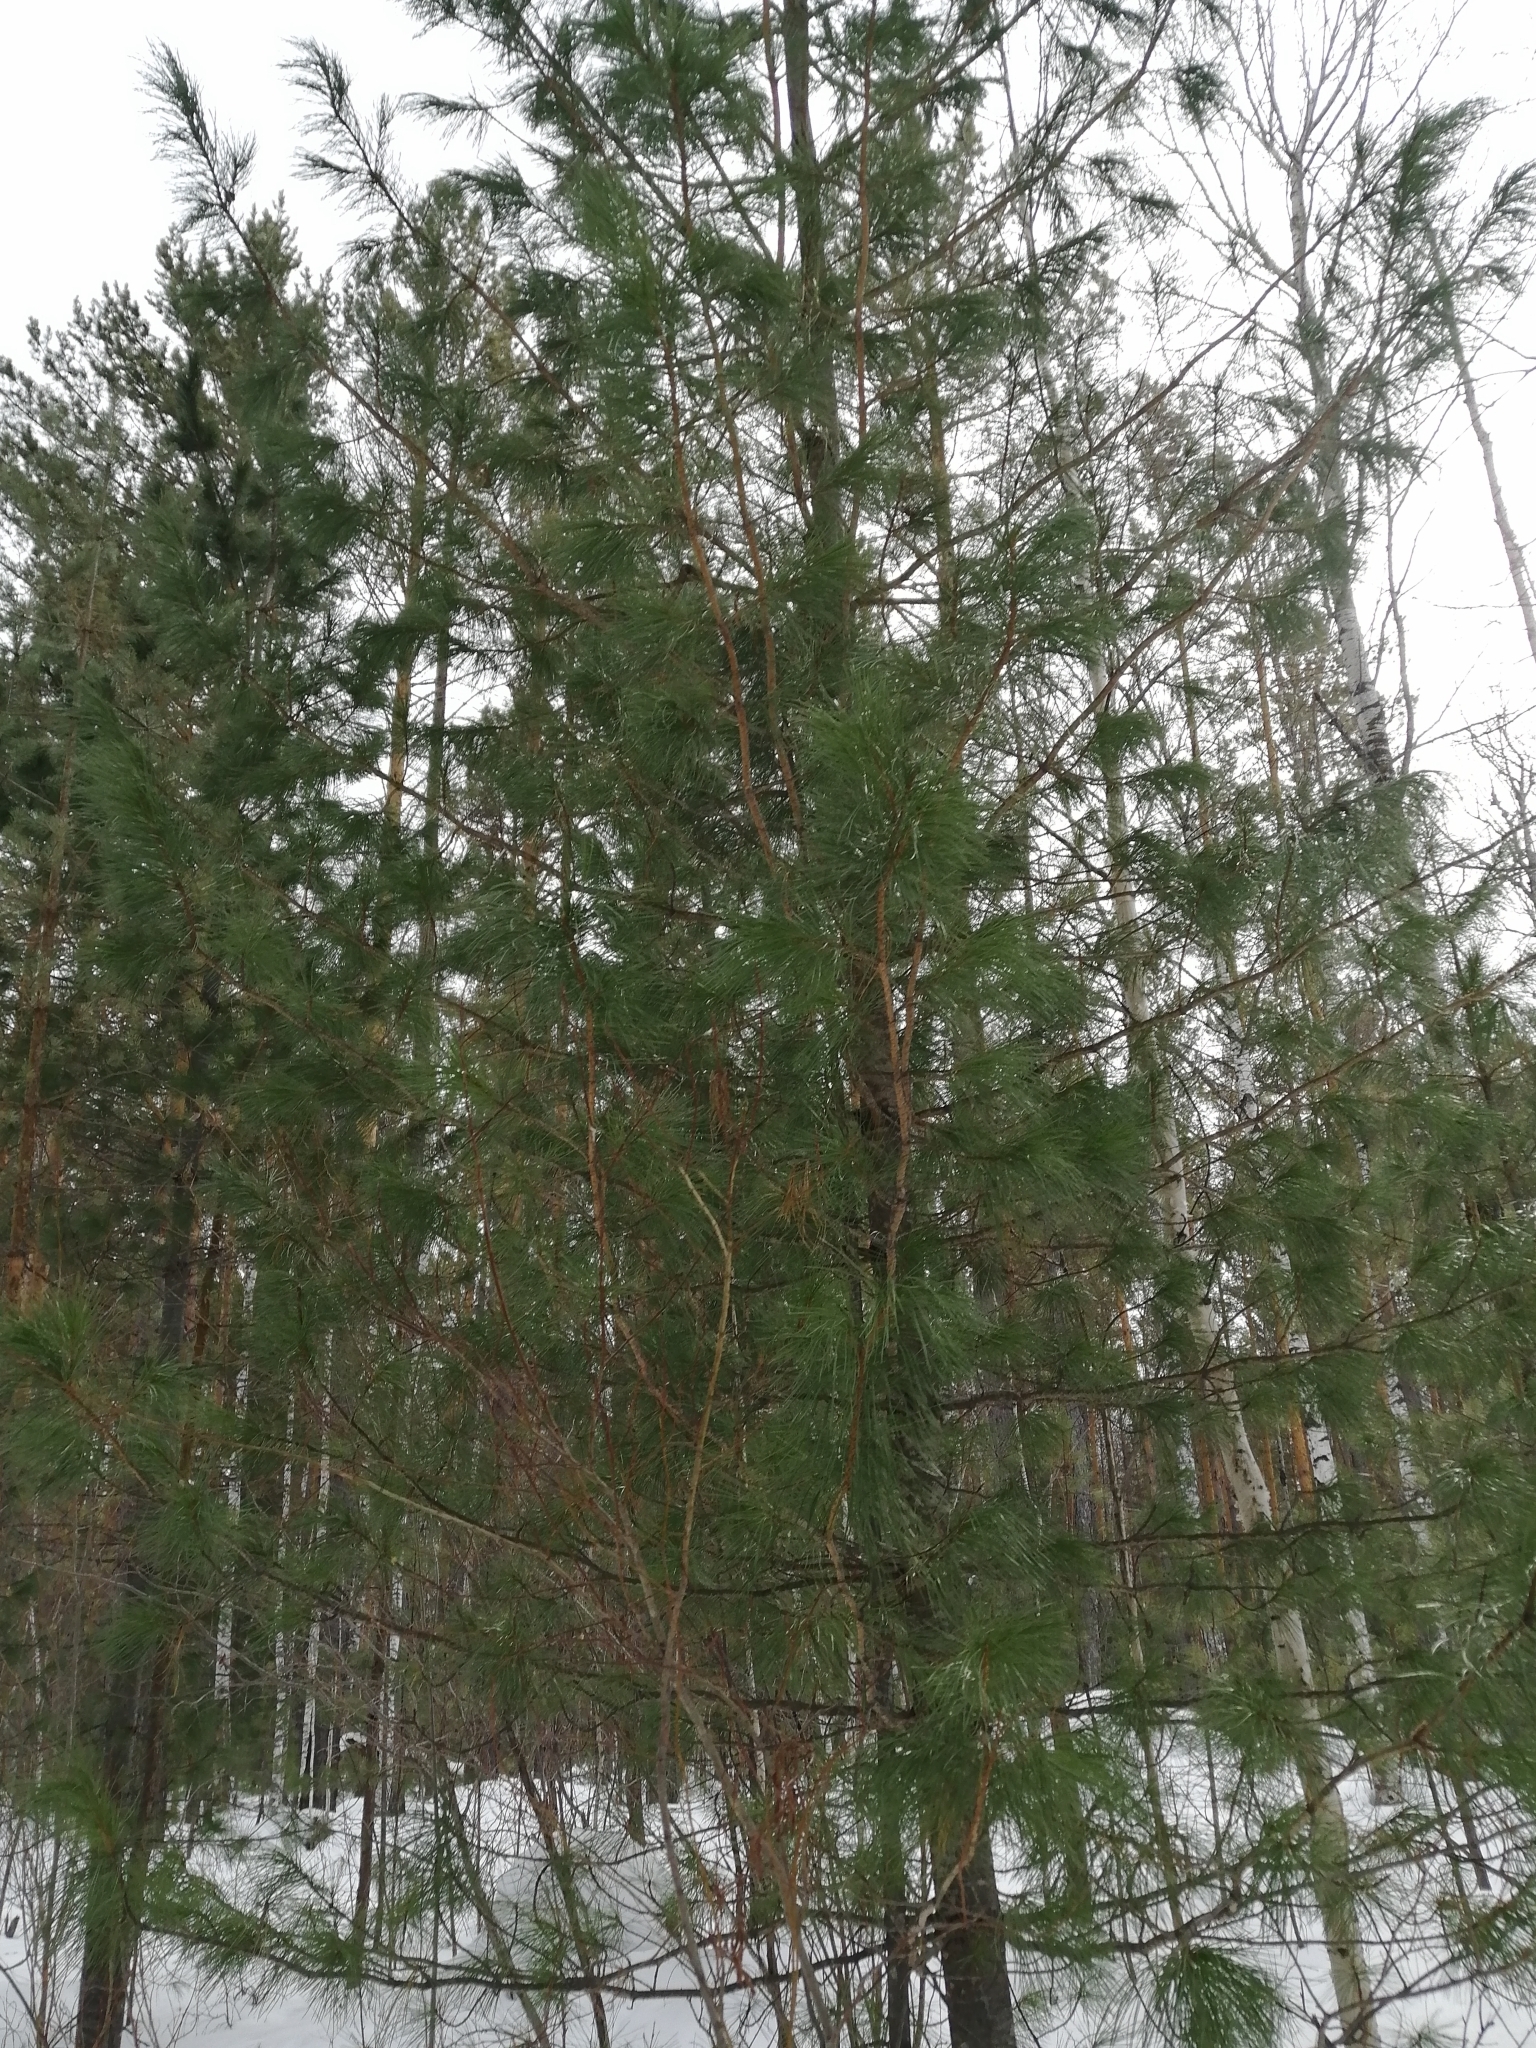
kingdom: Plantae
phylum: Tracheophyta
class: Pinopsida
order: Pinales
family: Pinaceae
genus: Pinus
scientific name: Pinus sibirica
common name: Siberian pine
